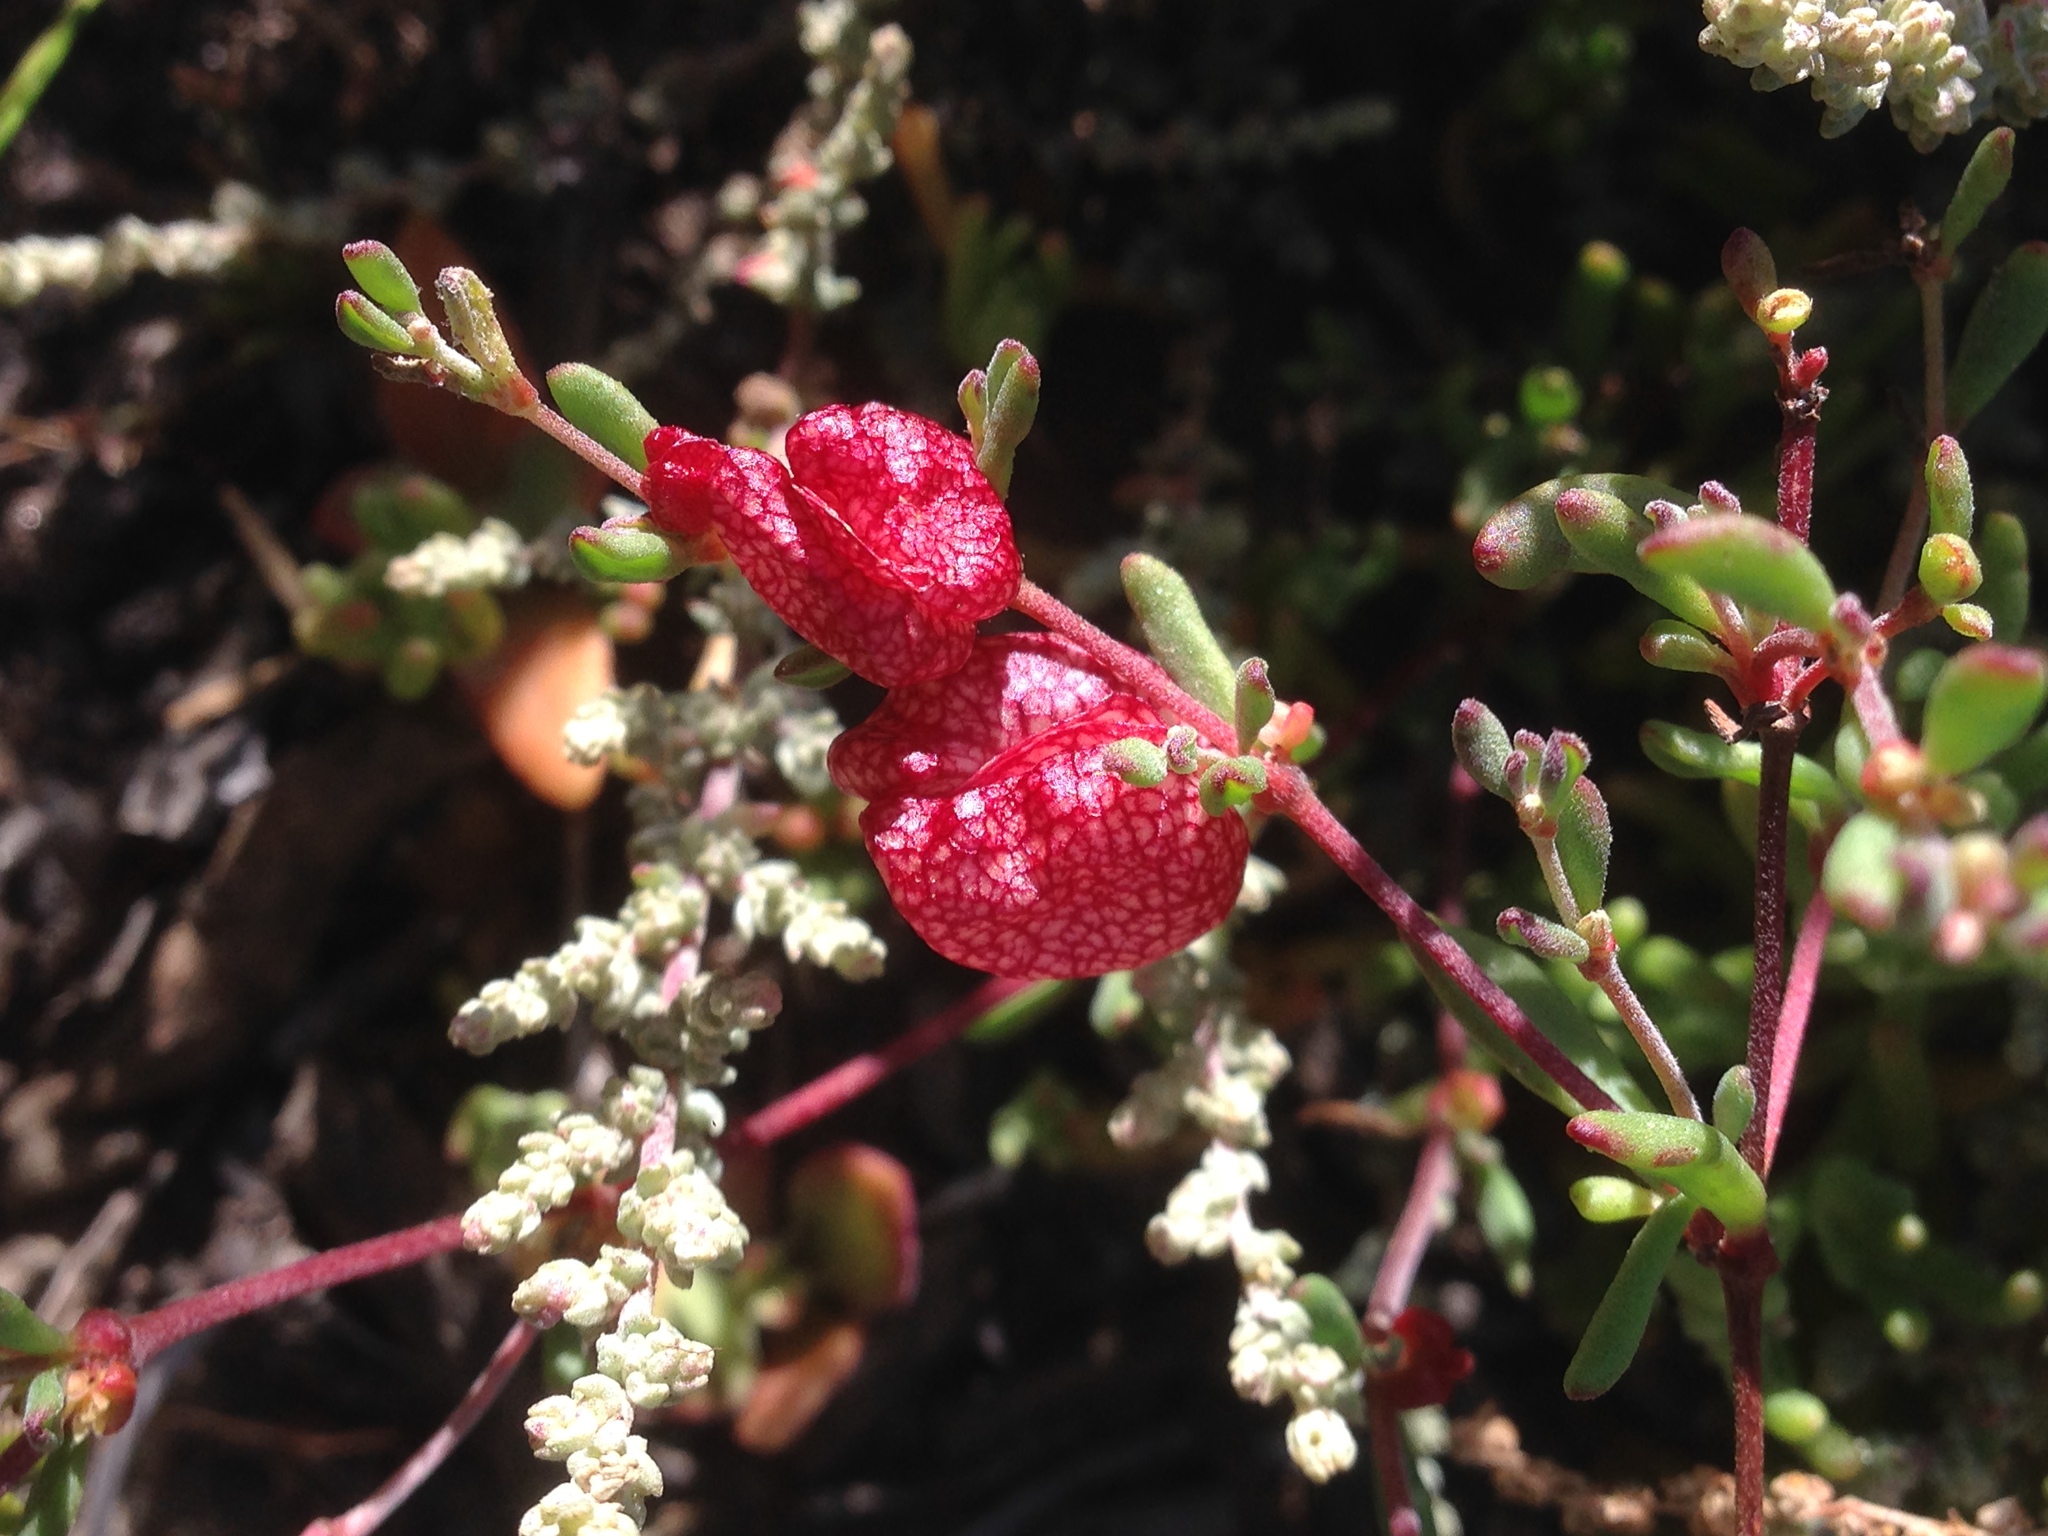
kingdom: Plantae
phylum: Tracheophyta
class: Magnoliopsida
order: Caryophyllales
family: Polygonaceae
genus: Harfordia
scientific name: Harfordia macroptera
